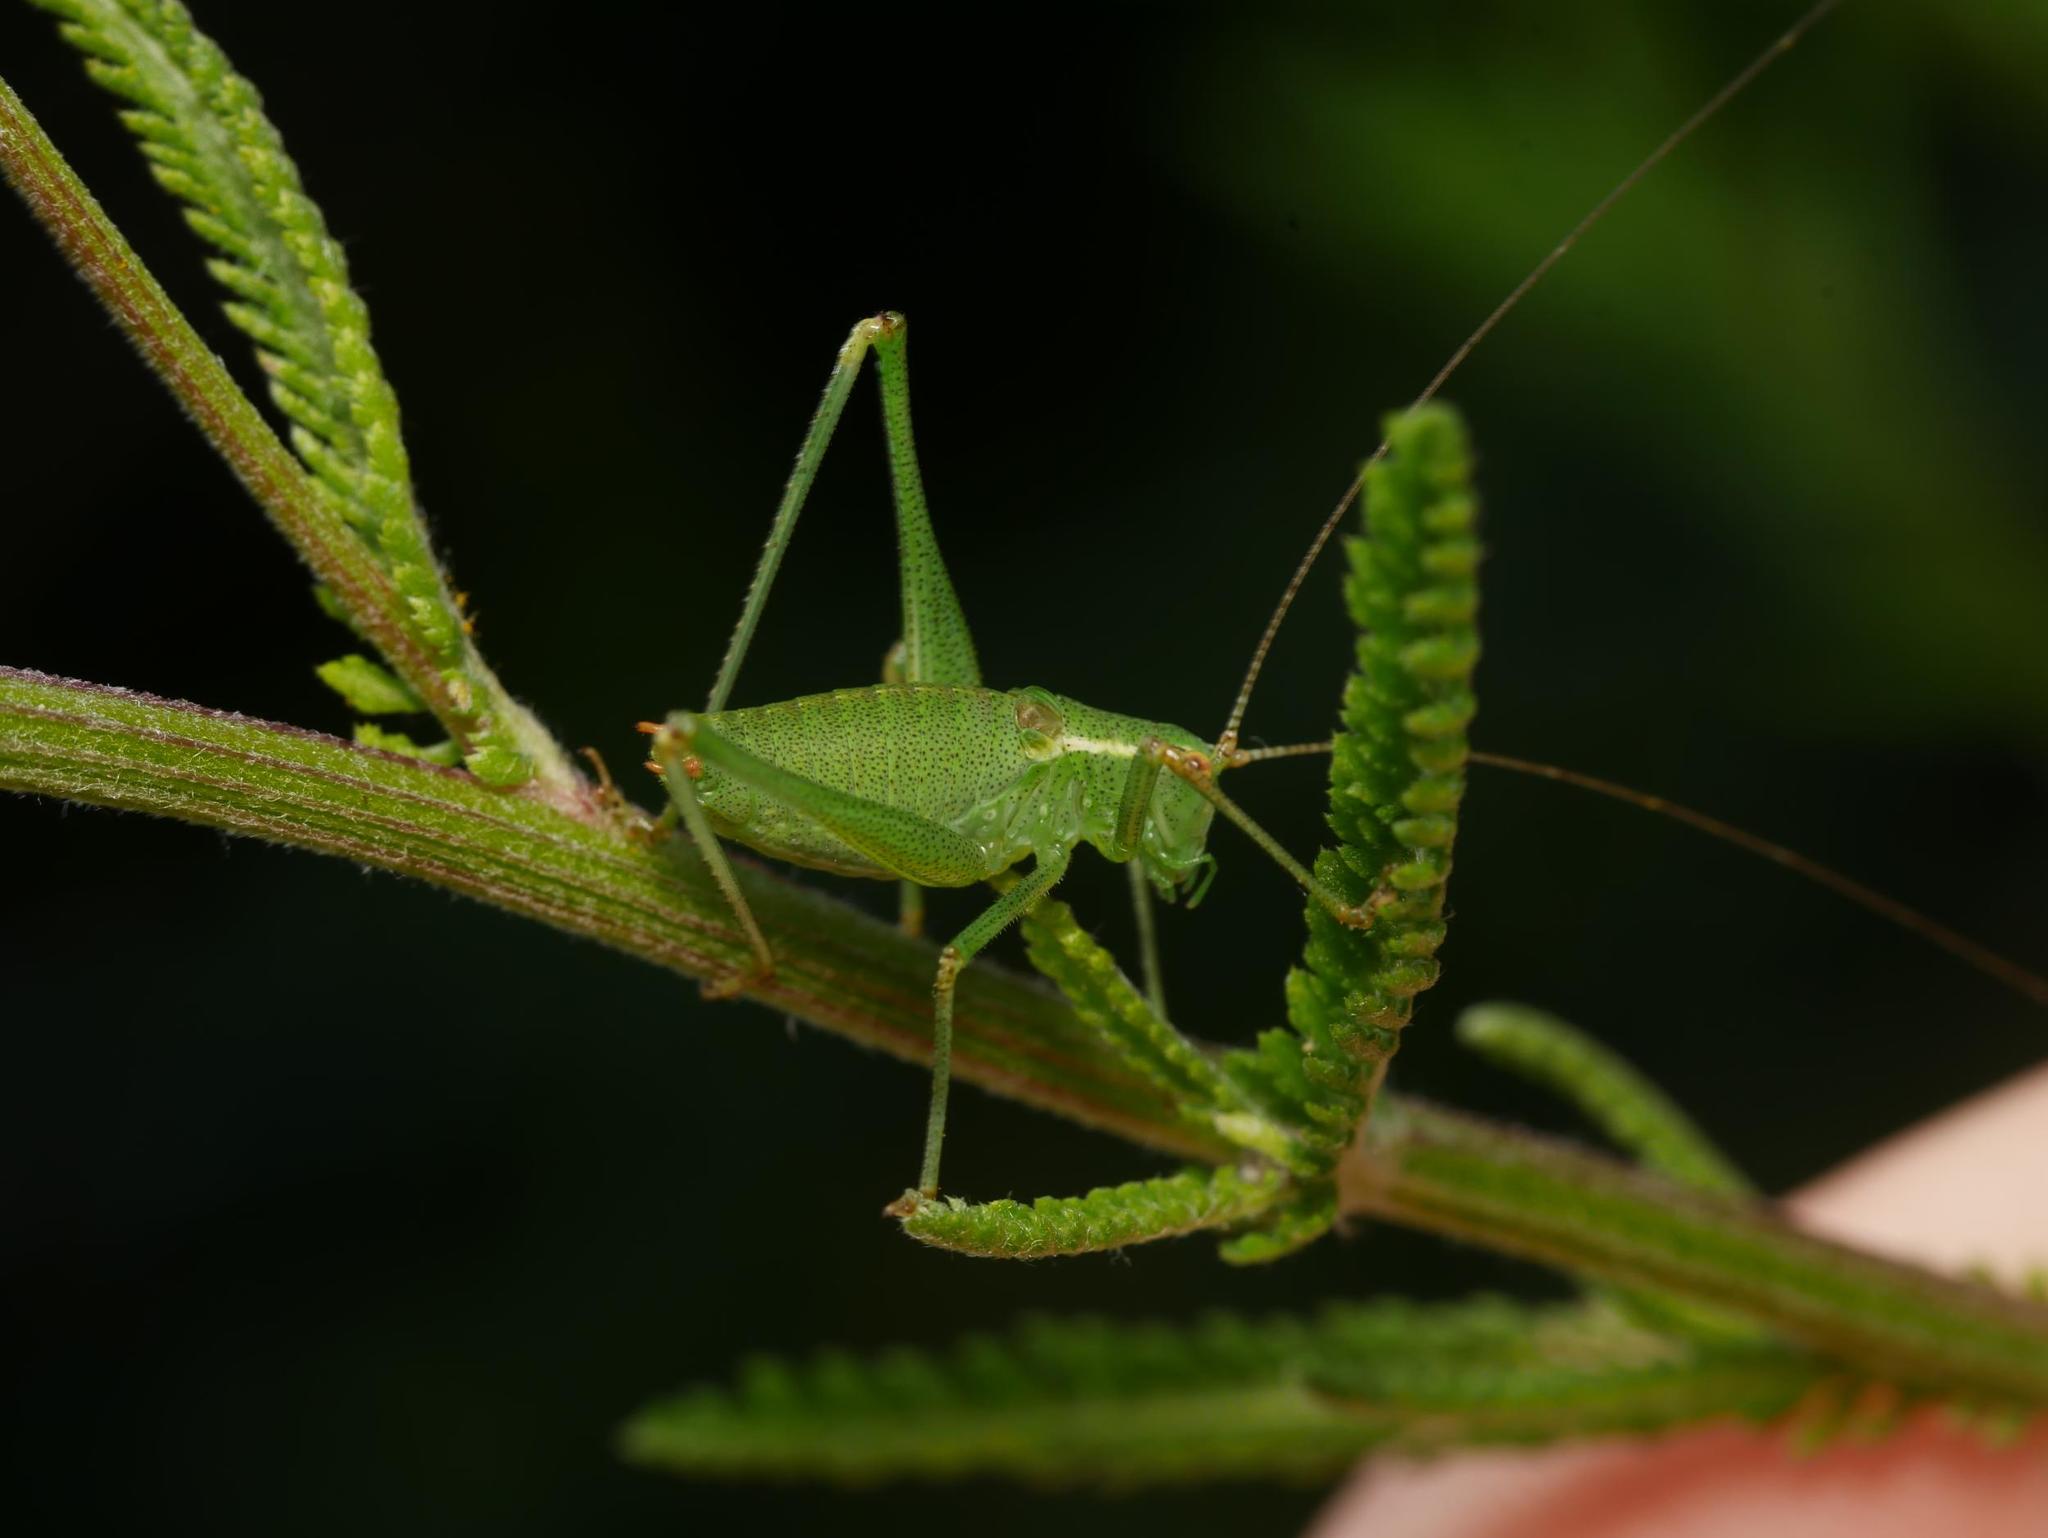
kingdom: Animalia
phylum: Arthropoda
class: Insecta
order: Orthoptera
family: Tettigoniidae
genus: Leptophyes
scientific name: Leptophyes punctatissima
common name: Speckled bush-cricket
